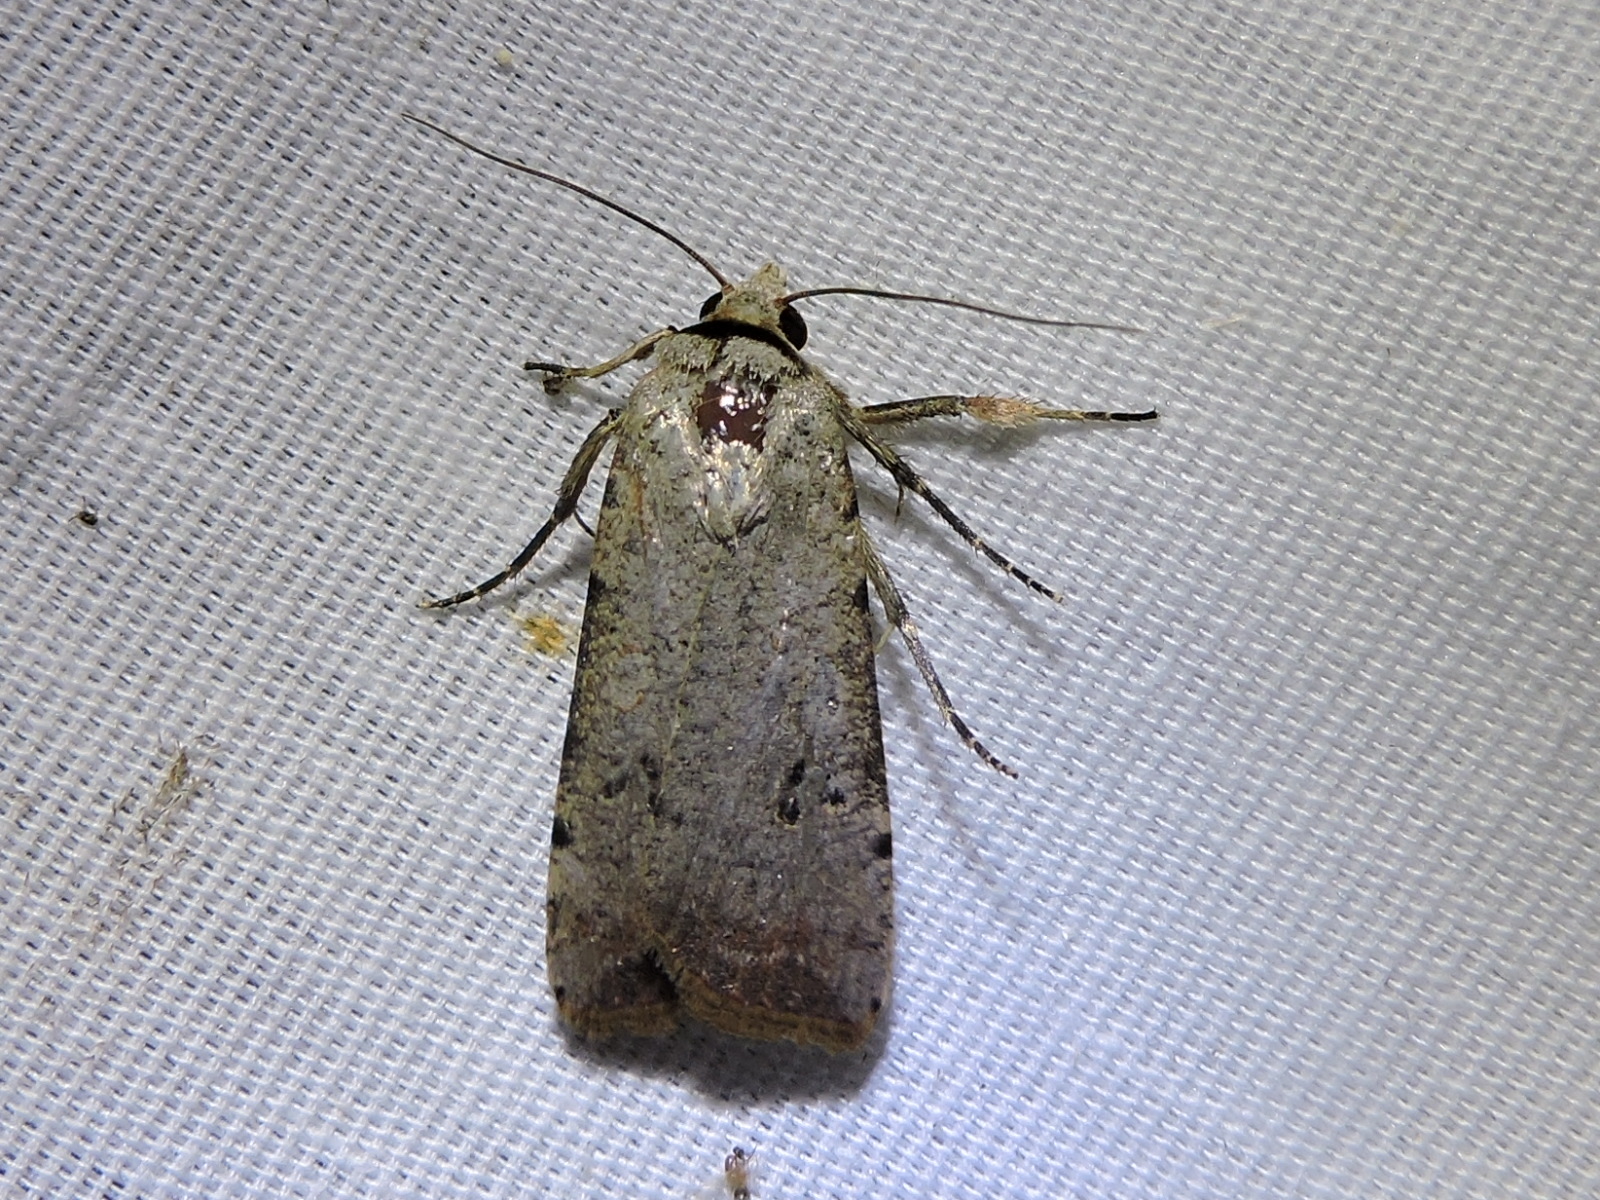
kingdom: Animalia
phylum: Arthropoda
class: Insecta
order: Lepidoptera
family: Noctuidae
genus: Anicla
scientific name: Anicla infecta
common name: Green cutworm
